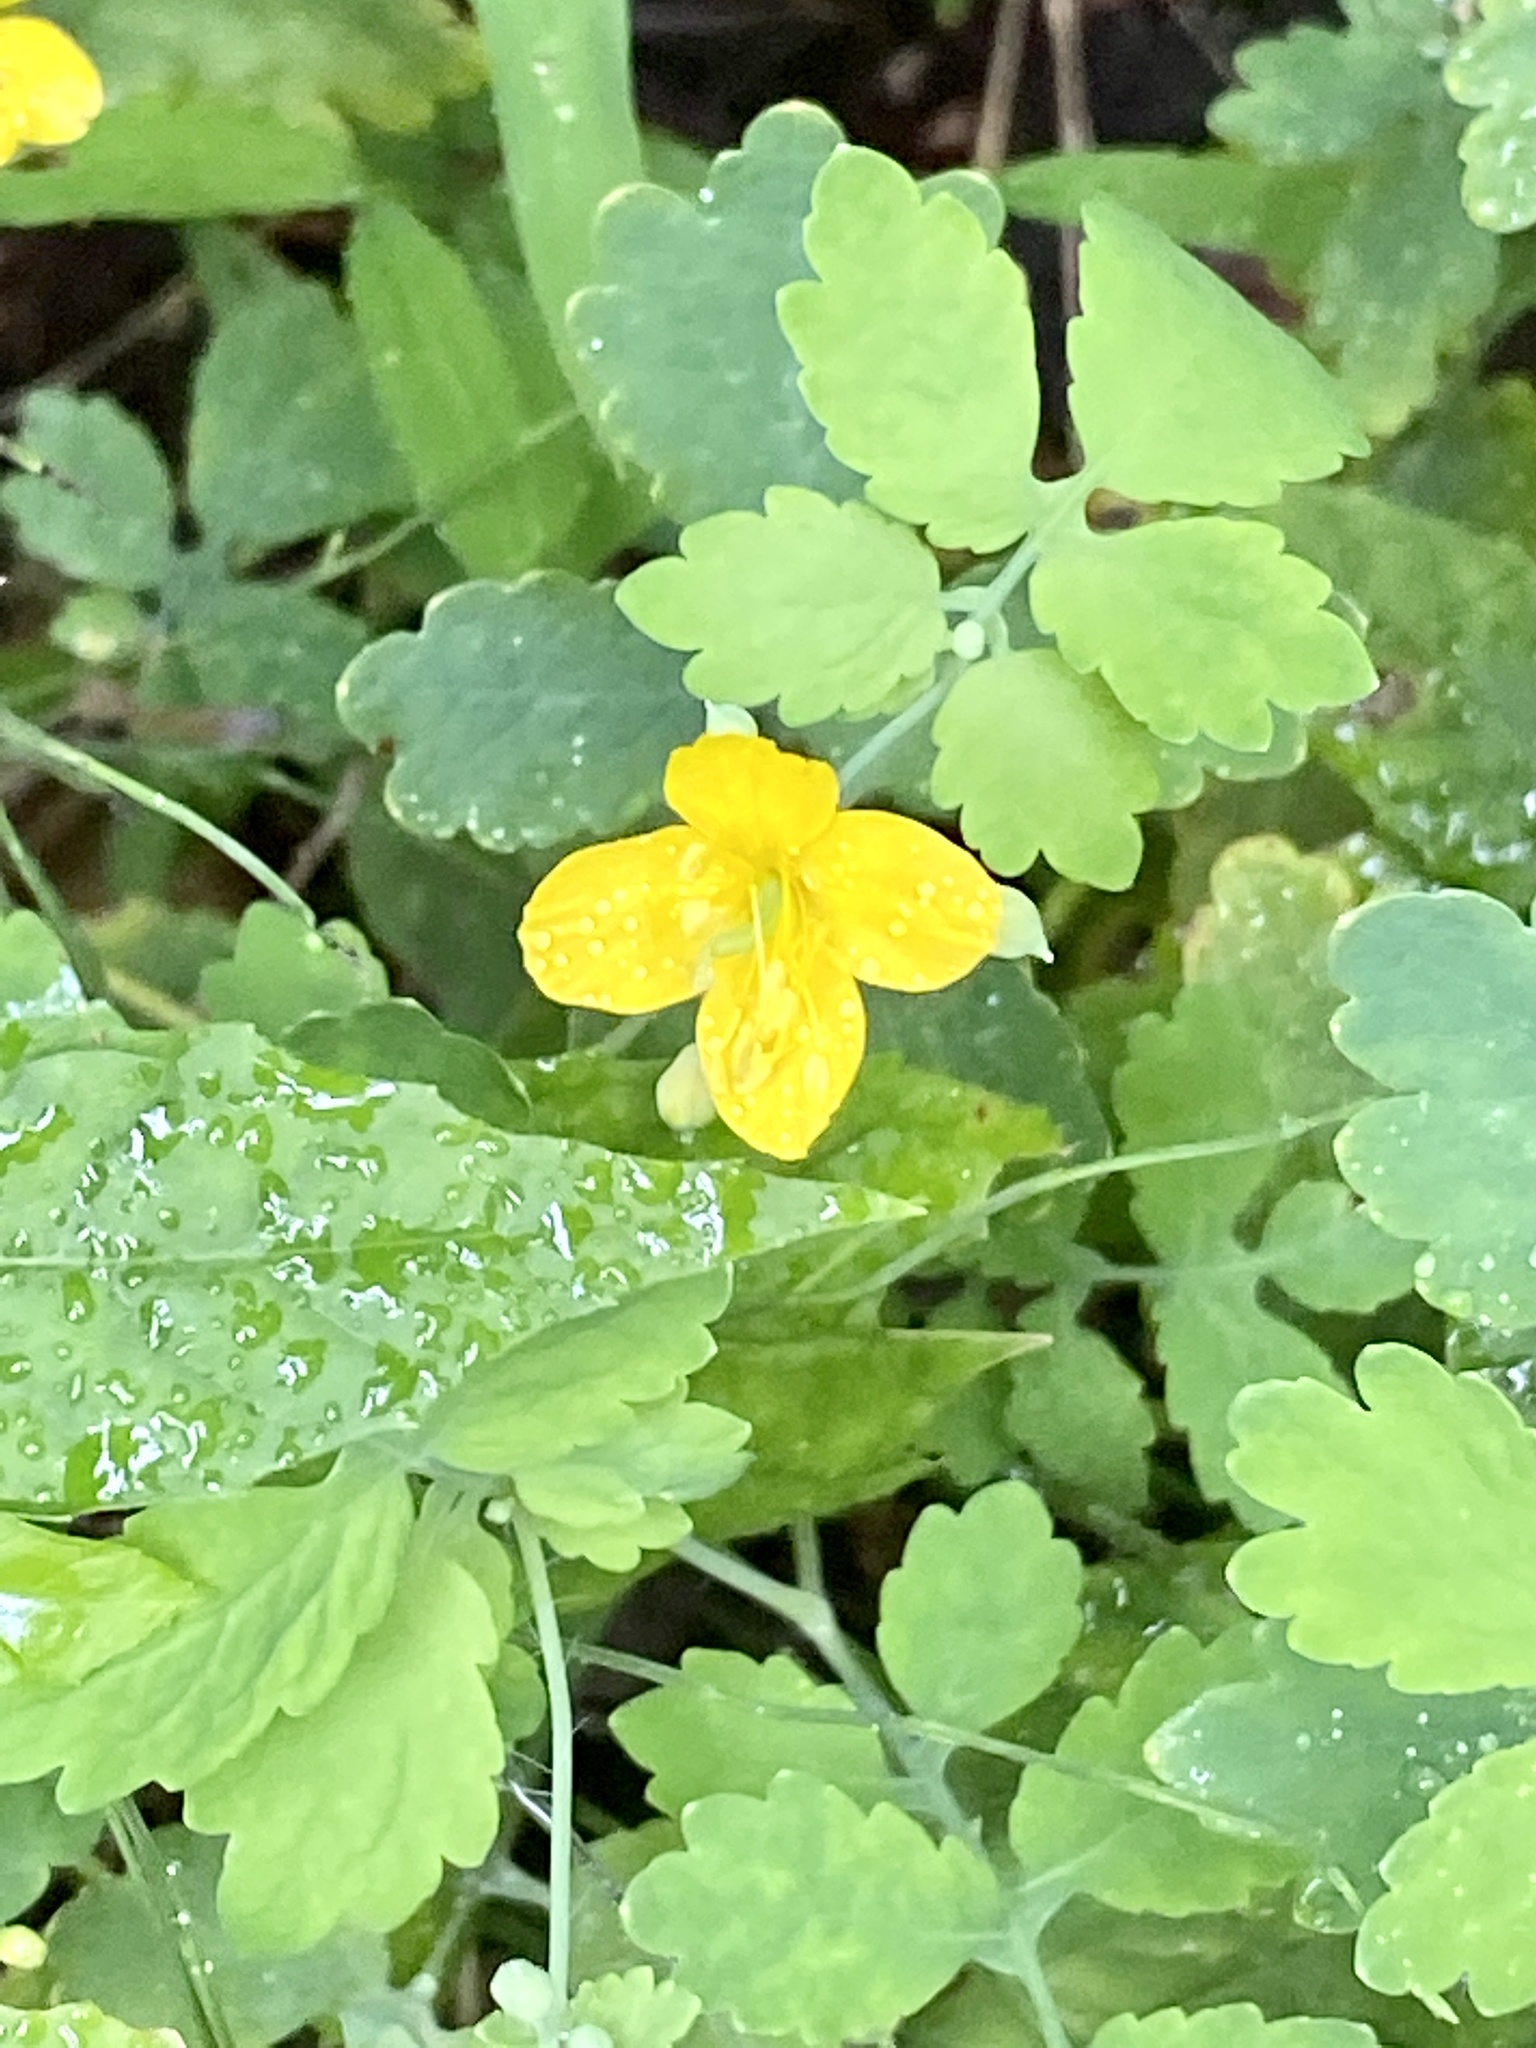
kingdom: Plantae
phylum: Tracheophyta
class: Magnoliopsida
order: Ranunculales
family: Papaveraceae
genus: Chelidonium
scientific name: Chelidonium majus
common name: Greater celandine
